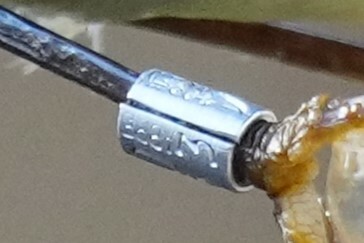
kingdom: Animalia
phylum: Chordata
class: Aves
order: Passeriformes
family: Regulidae
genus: Regulus
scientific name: Regulus calendula
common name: Ruby-crowned kinglet
